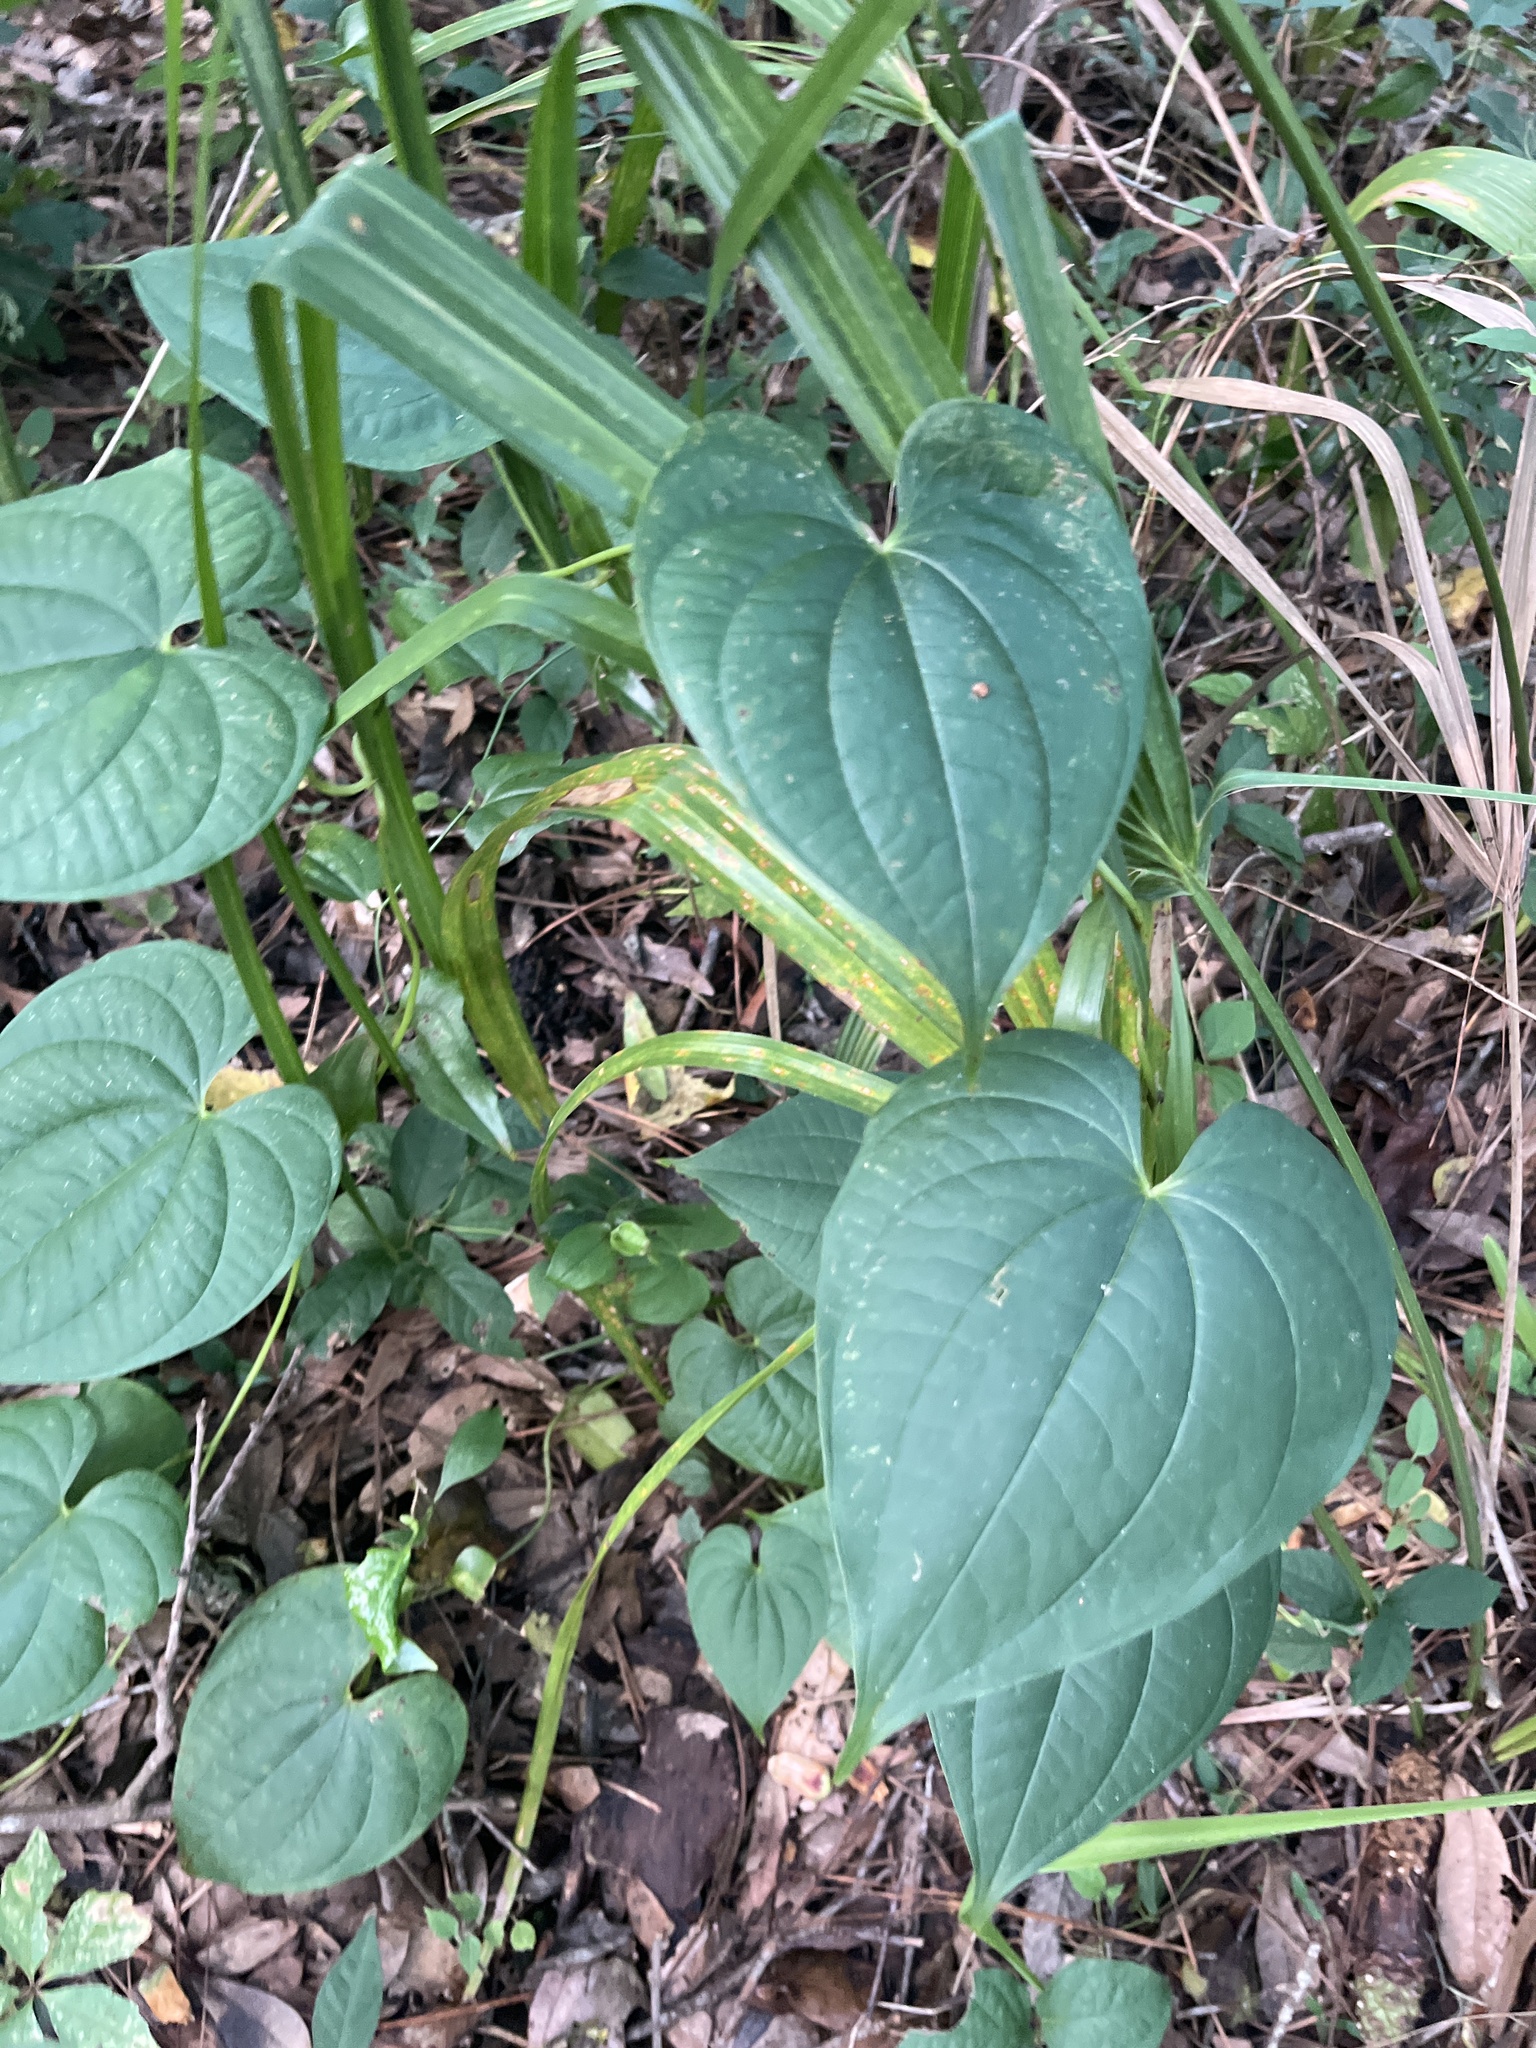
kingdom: Plantae
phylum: Tracheophyta
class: Liliopsida
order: Dioscoreales
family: Dioscoreaceae
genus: Dioscorea
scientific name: Dioscorea bulbifera
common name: Air yam
